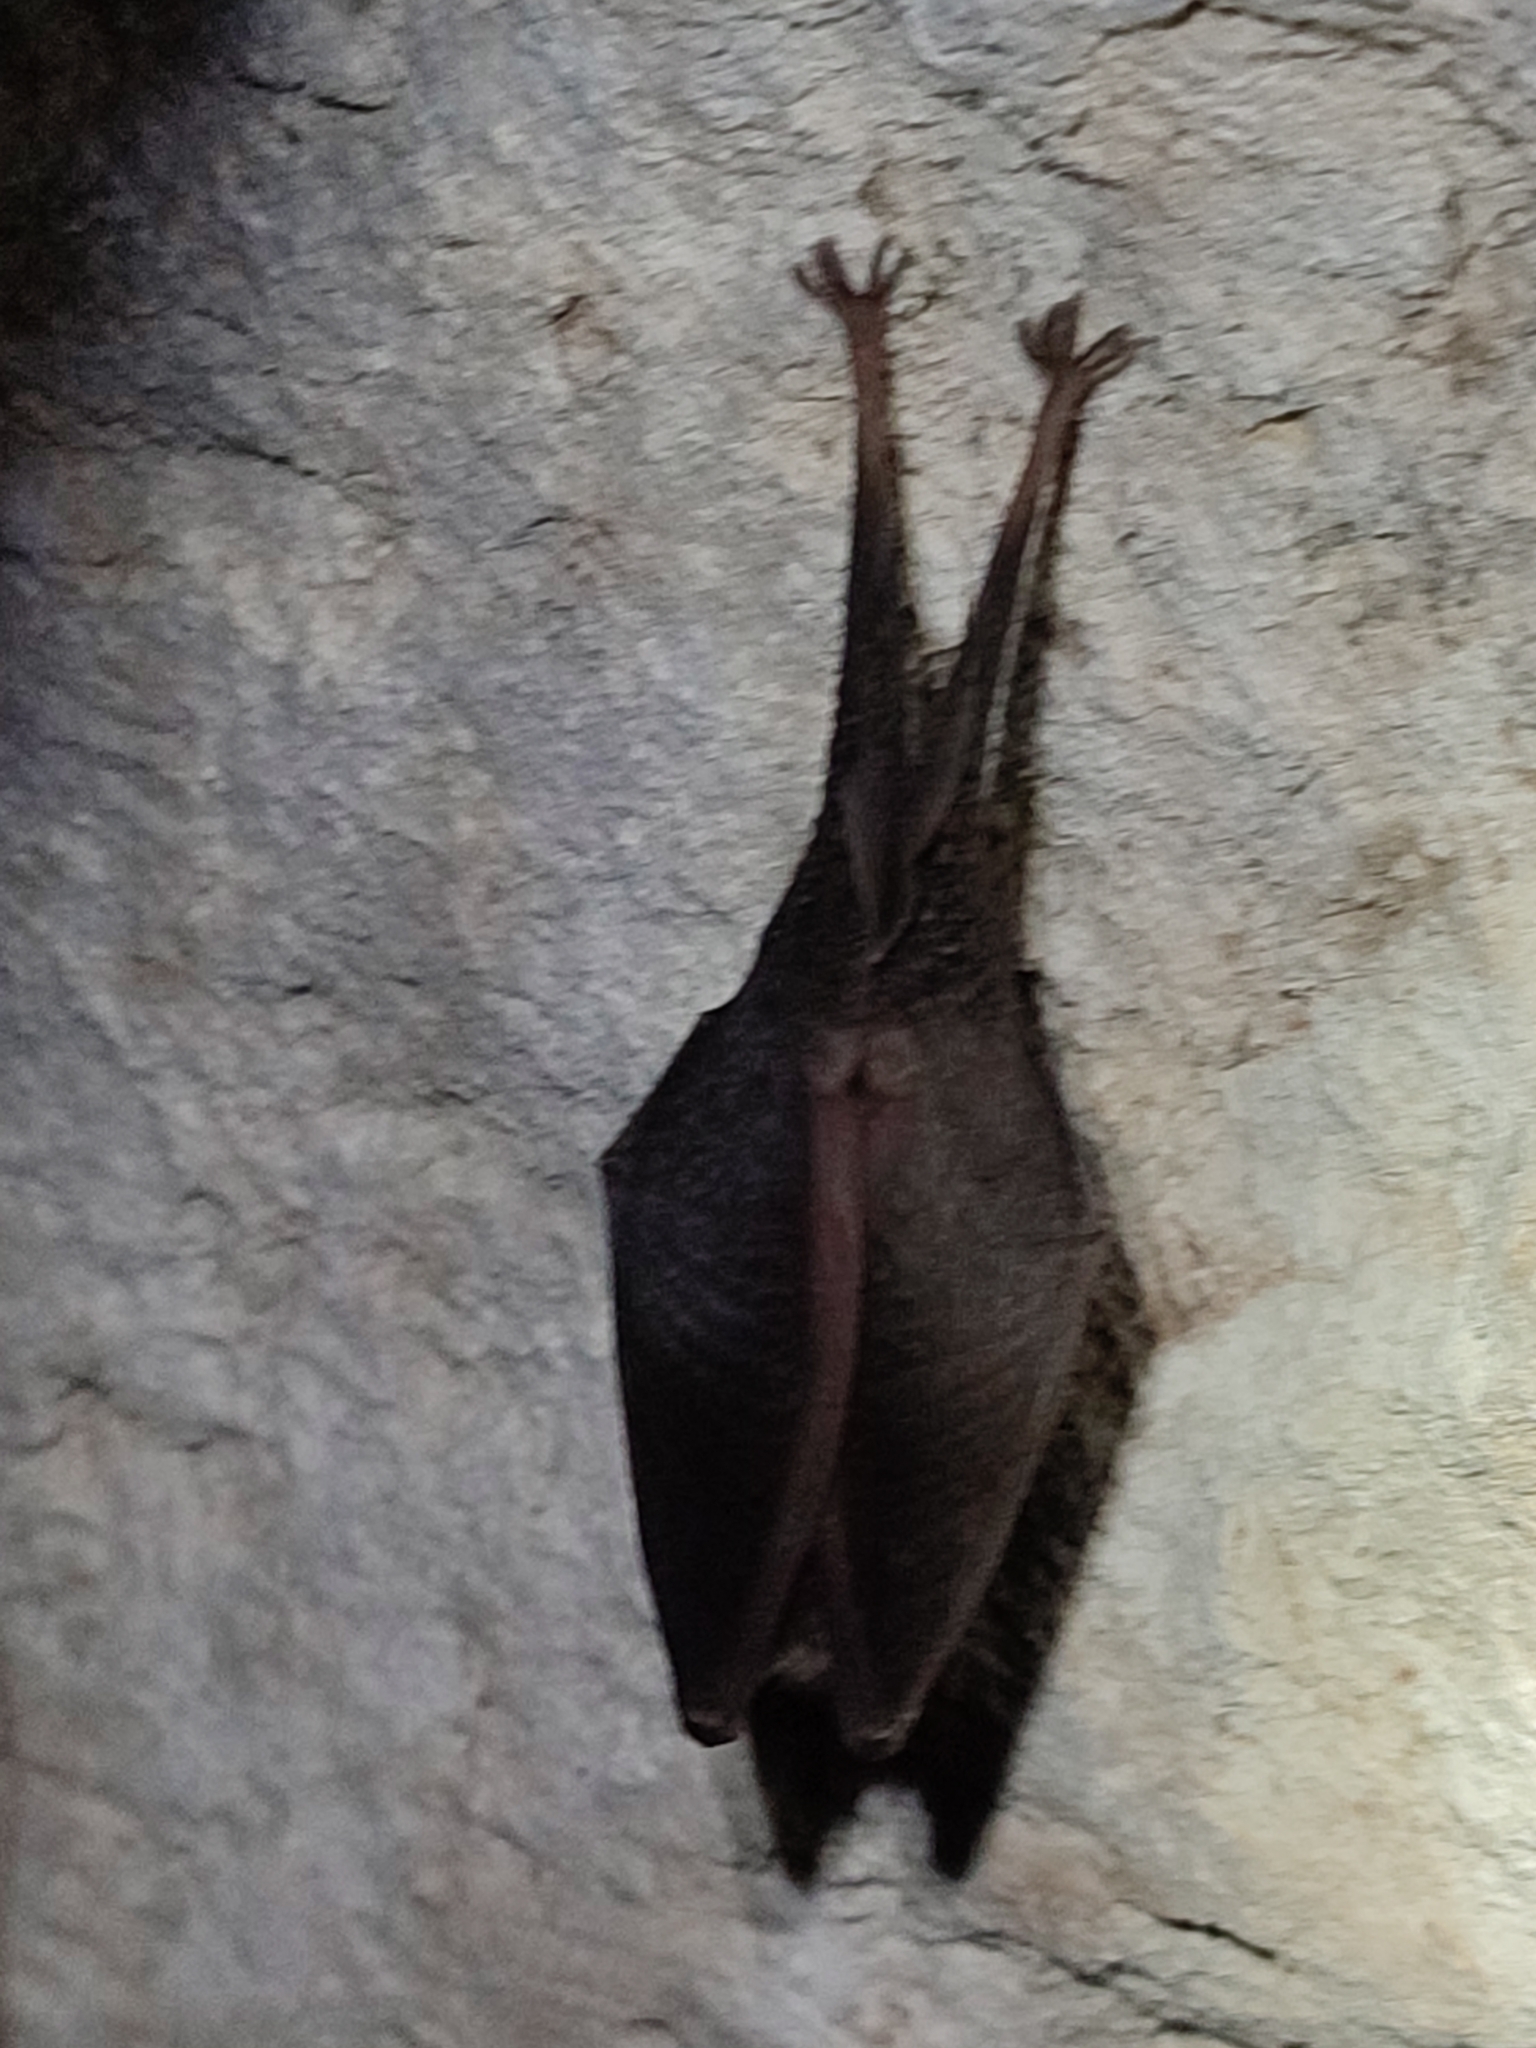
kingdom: Animalia
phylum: Chordata
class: Mammalia
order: Chiroptera
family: Rhinolophidae
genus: Rhinolophus
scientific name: Rhinolophus hipposideros
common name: Lesser horseshoe bat
